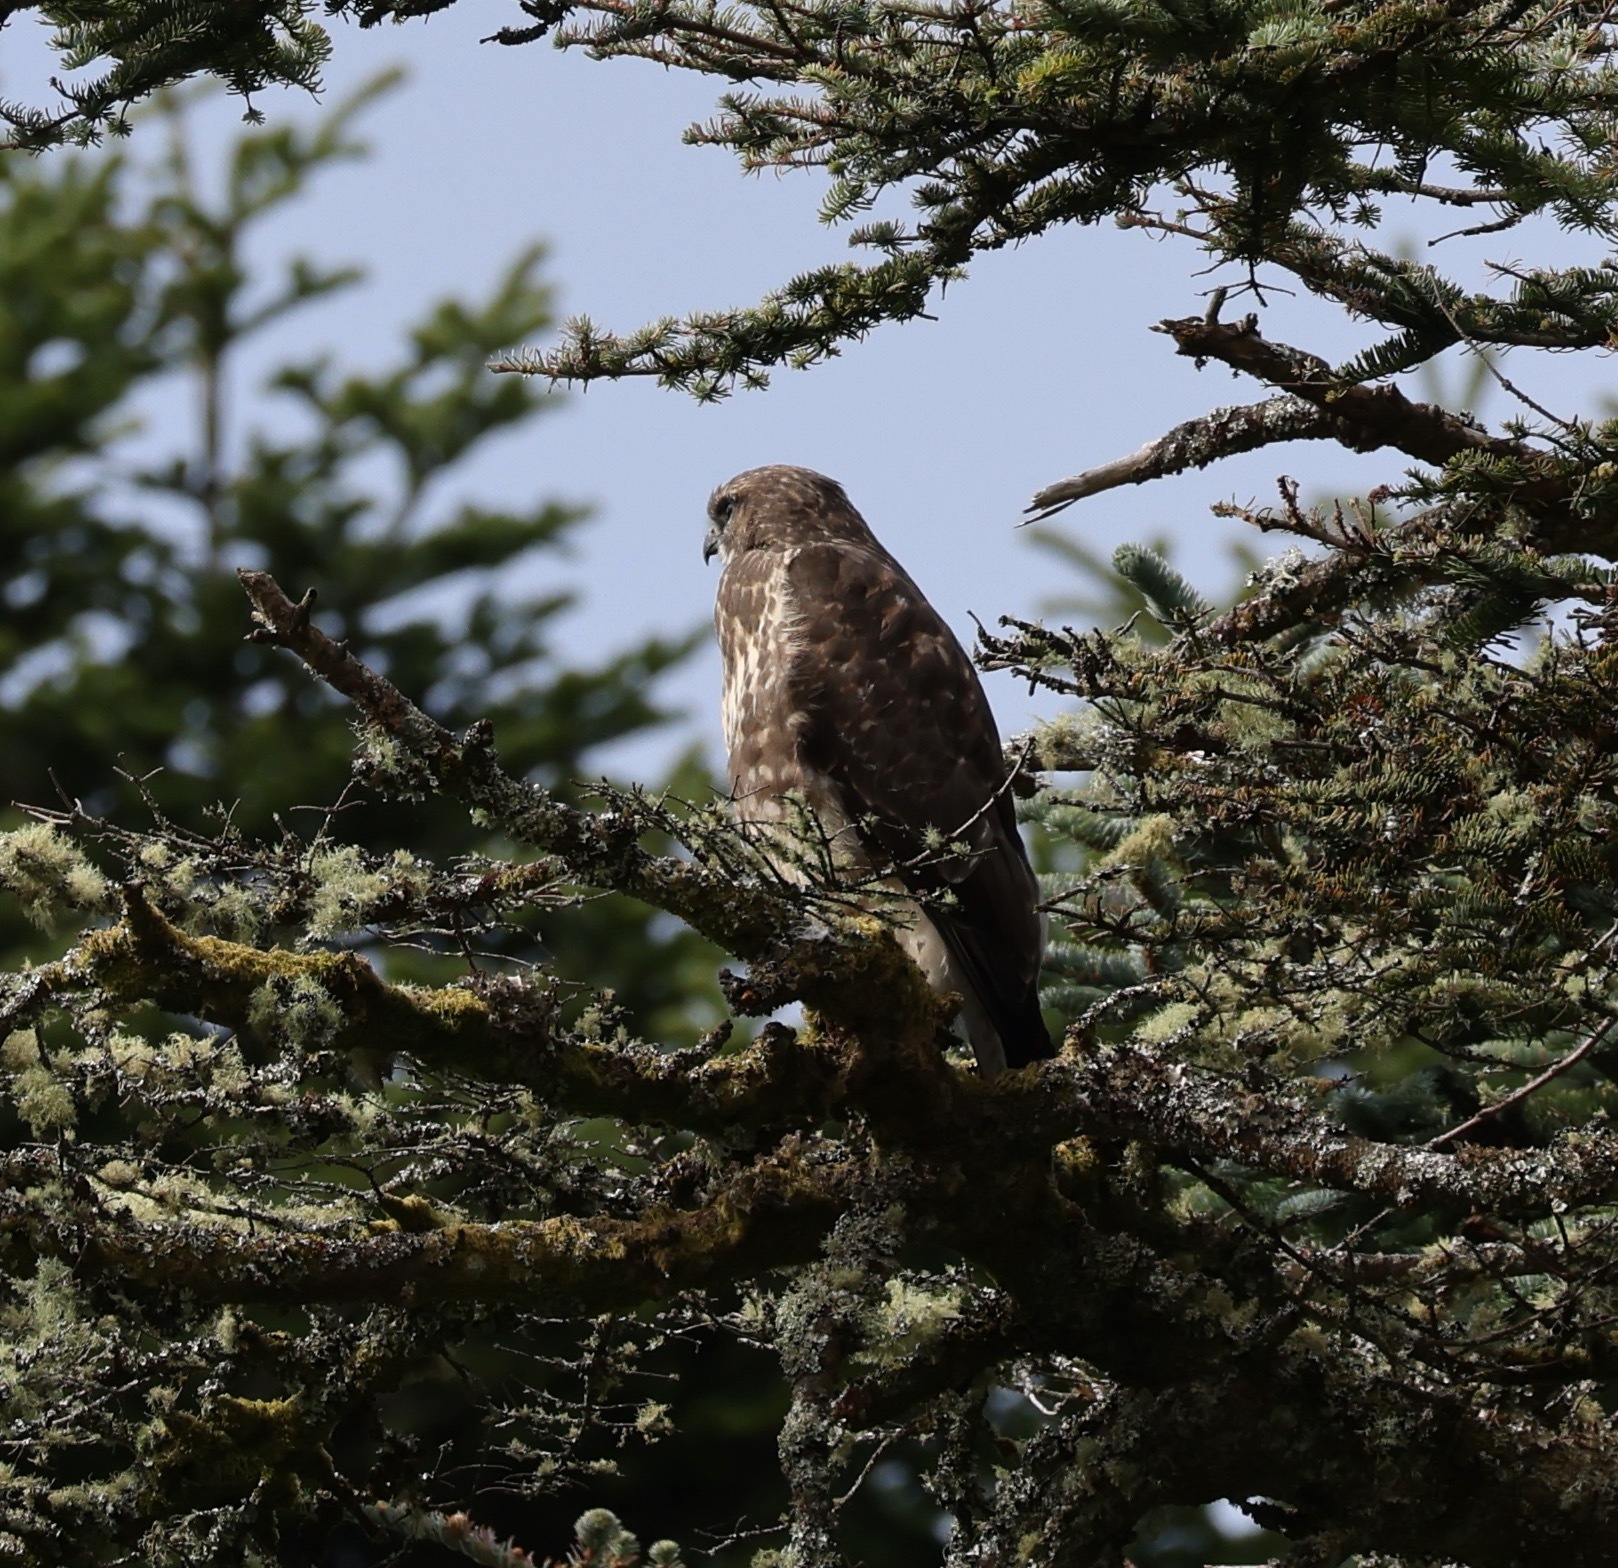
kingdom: Animalia
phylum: Chordata
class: Aves
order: Accipitriformes
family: Accipitridae
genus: Buteo
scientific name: Buteo buteo
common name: Common buzzard
